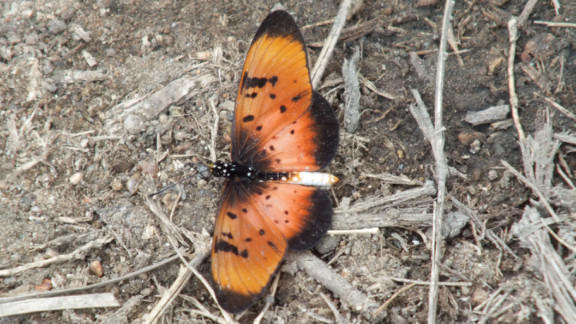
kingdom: Animalia
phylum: Arthropoda
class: Insecta
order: Lepidoptera
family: Nymphalidae
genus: Stephenia
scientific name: Stephenia
